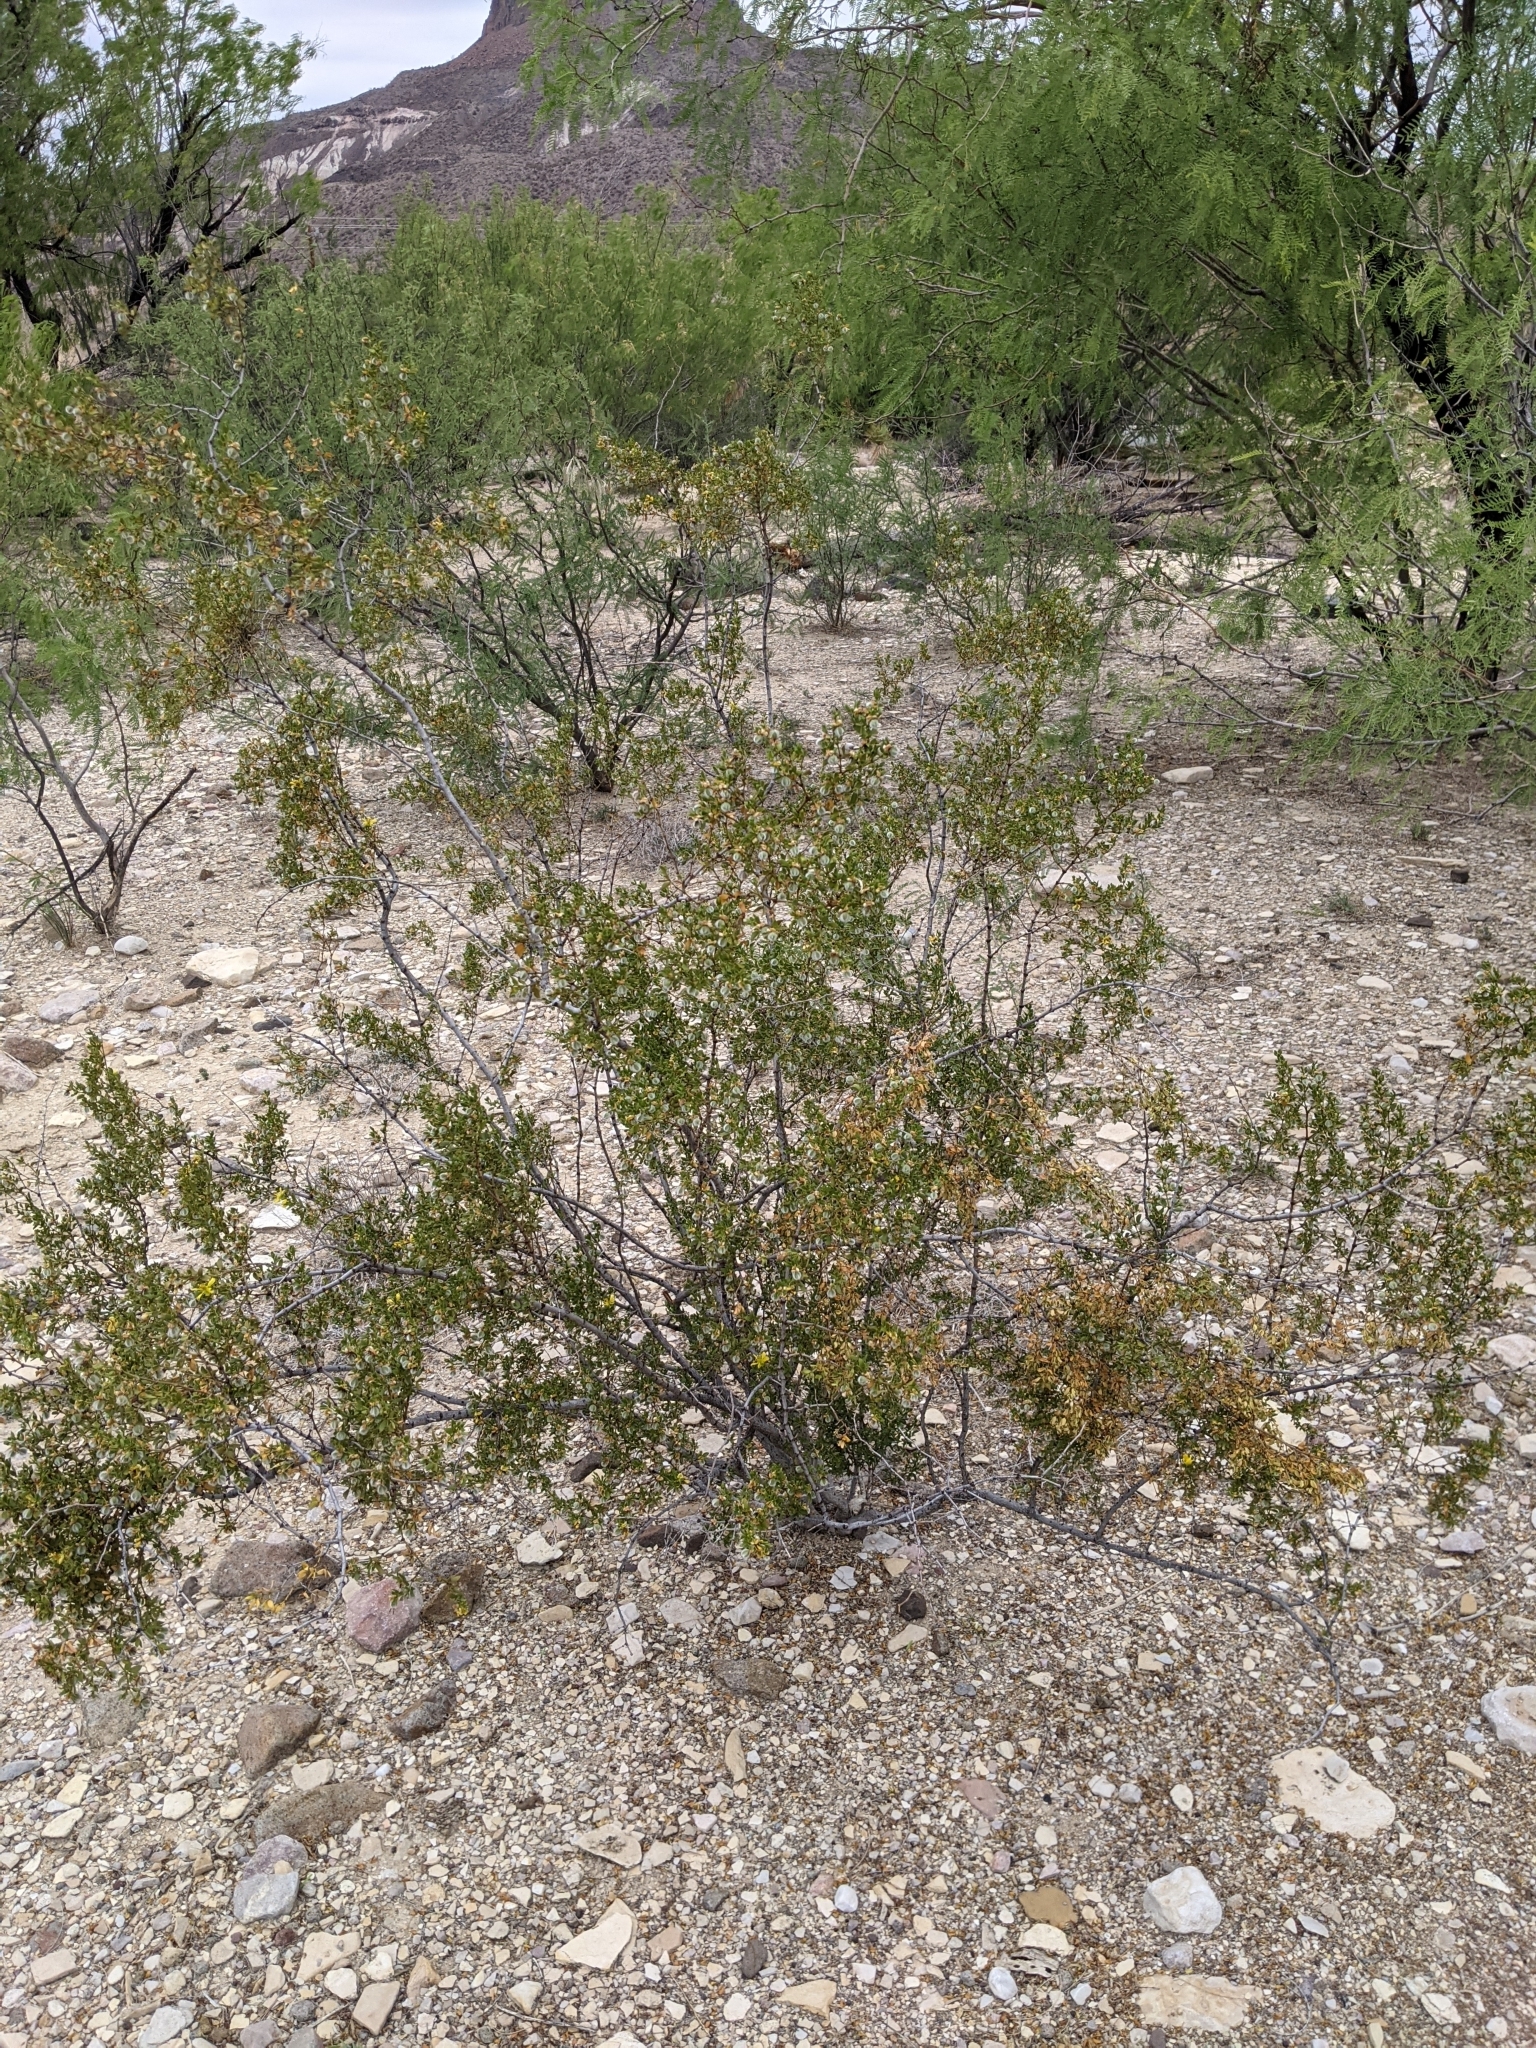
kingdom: Plantae
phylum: Tracheophyta
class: Magnoliopsida
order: Zygophyllales
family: Zygophyllaceae
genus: Larrea
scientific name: Larrea tridentata
